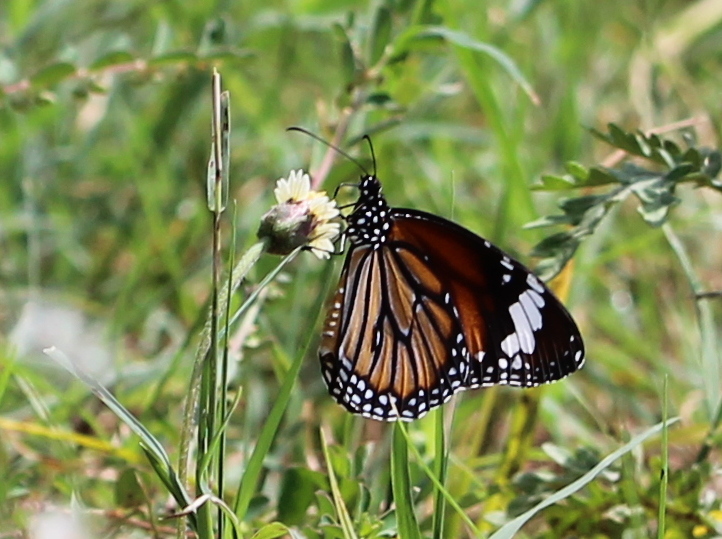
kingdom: Animalia
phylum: Arthropoda
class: Insecta
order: Lepidoptera
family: Nymphalidae
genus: Danaus
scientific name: Danaus genutia
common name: Common tiger butterfly
